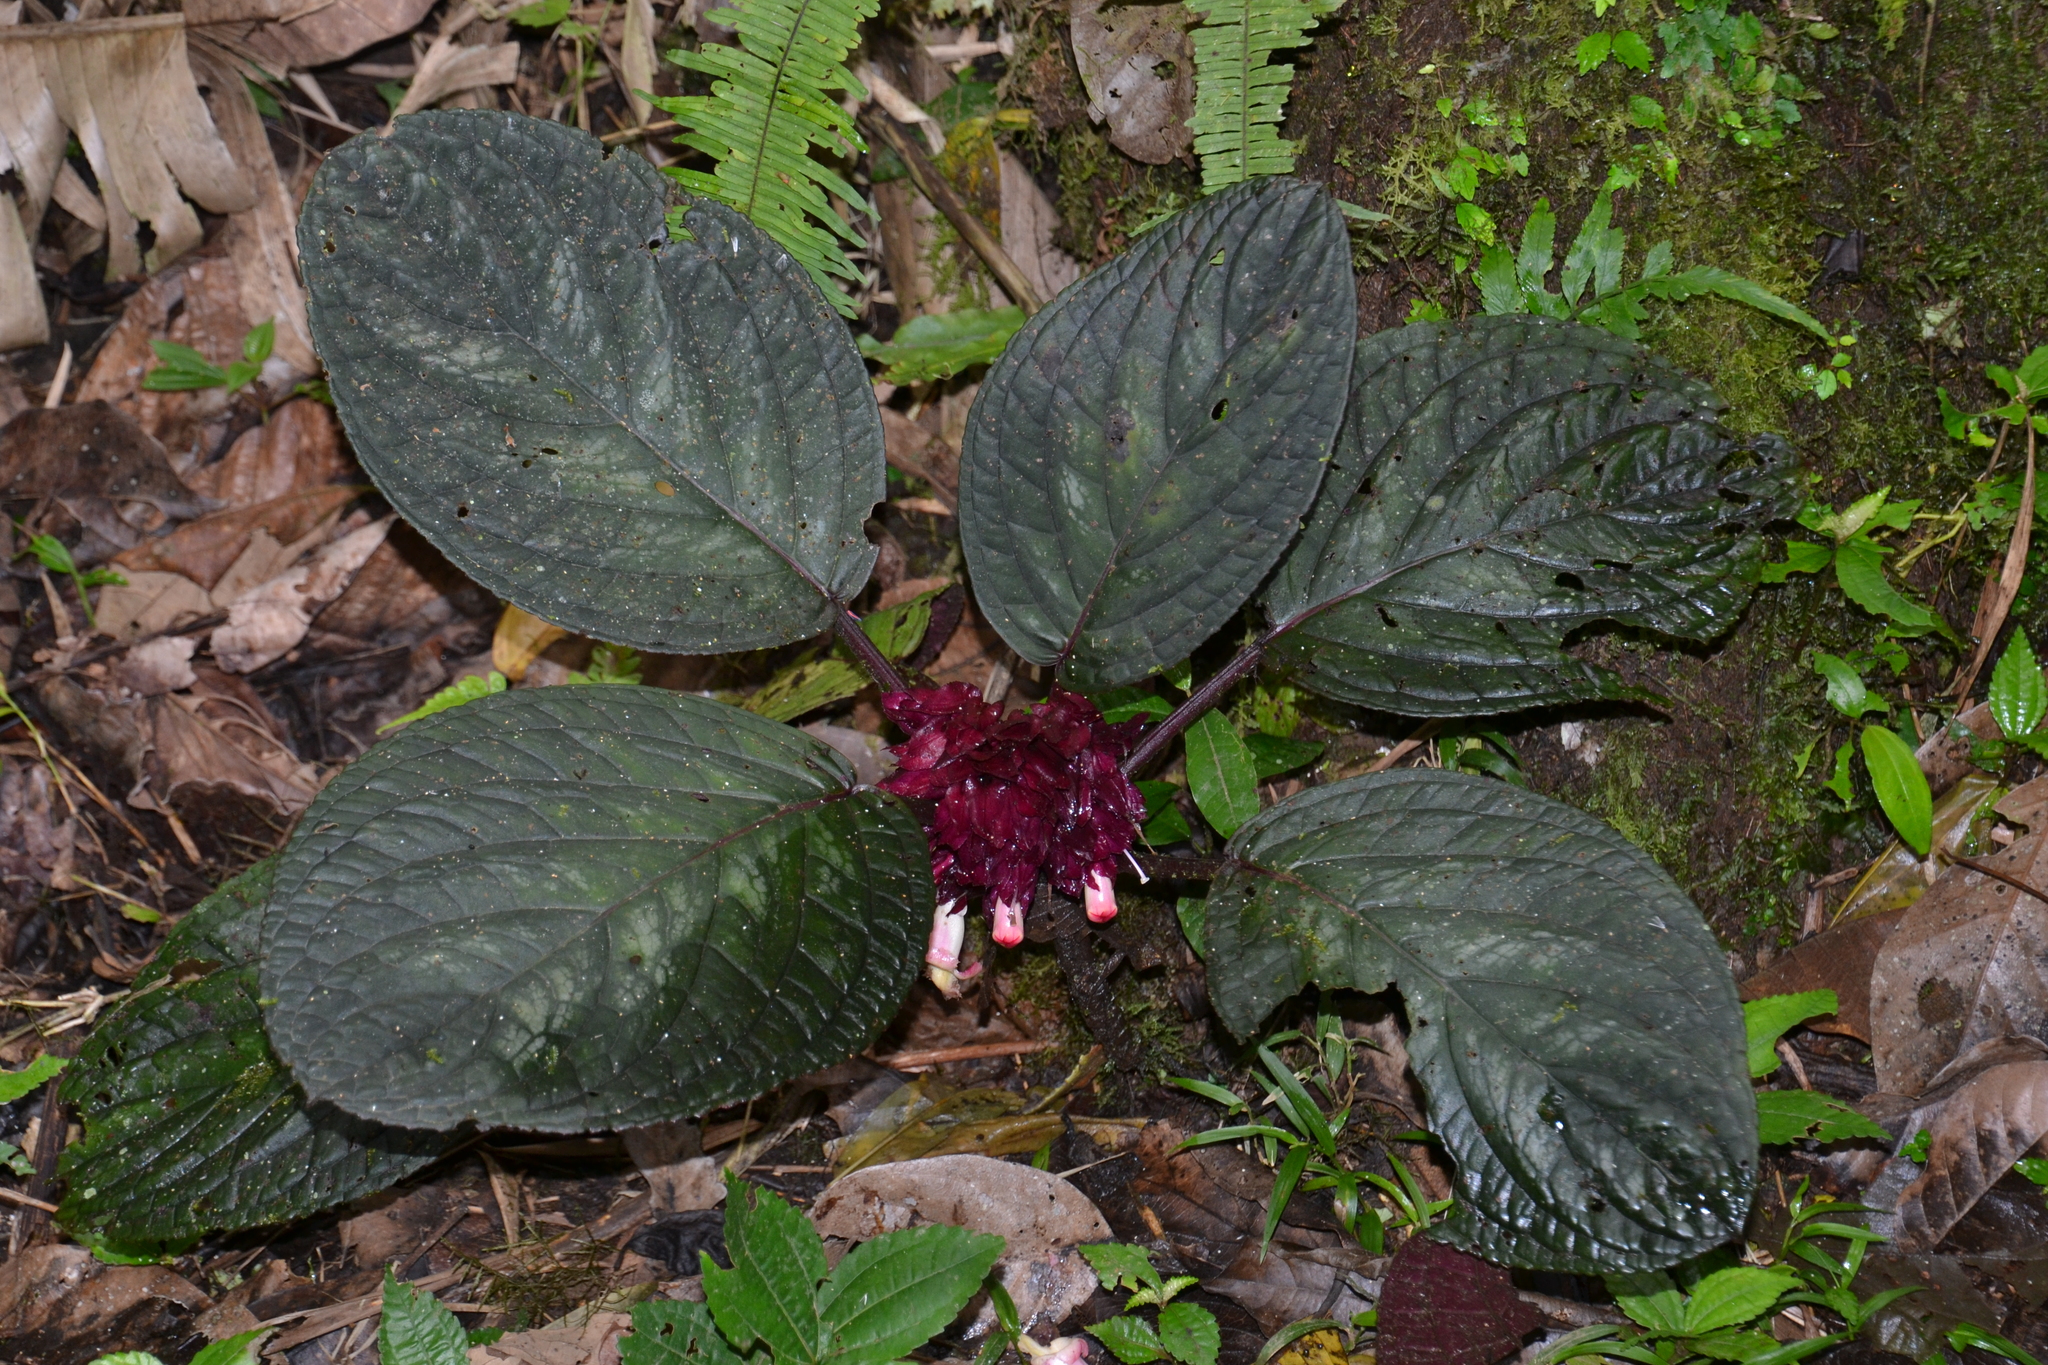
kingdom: Plantae
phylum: Tracheophyta
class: Magnoliopsida
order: Lamiales
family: Gesneriaceae
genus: Drymonia
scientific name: Drymonia turrialvae
